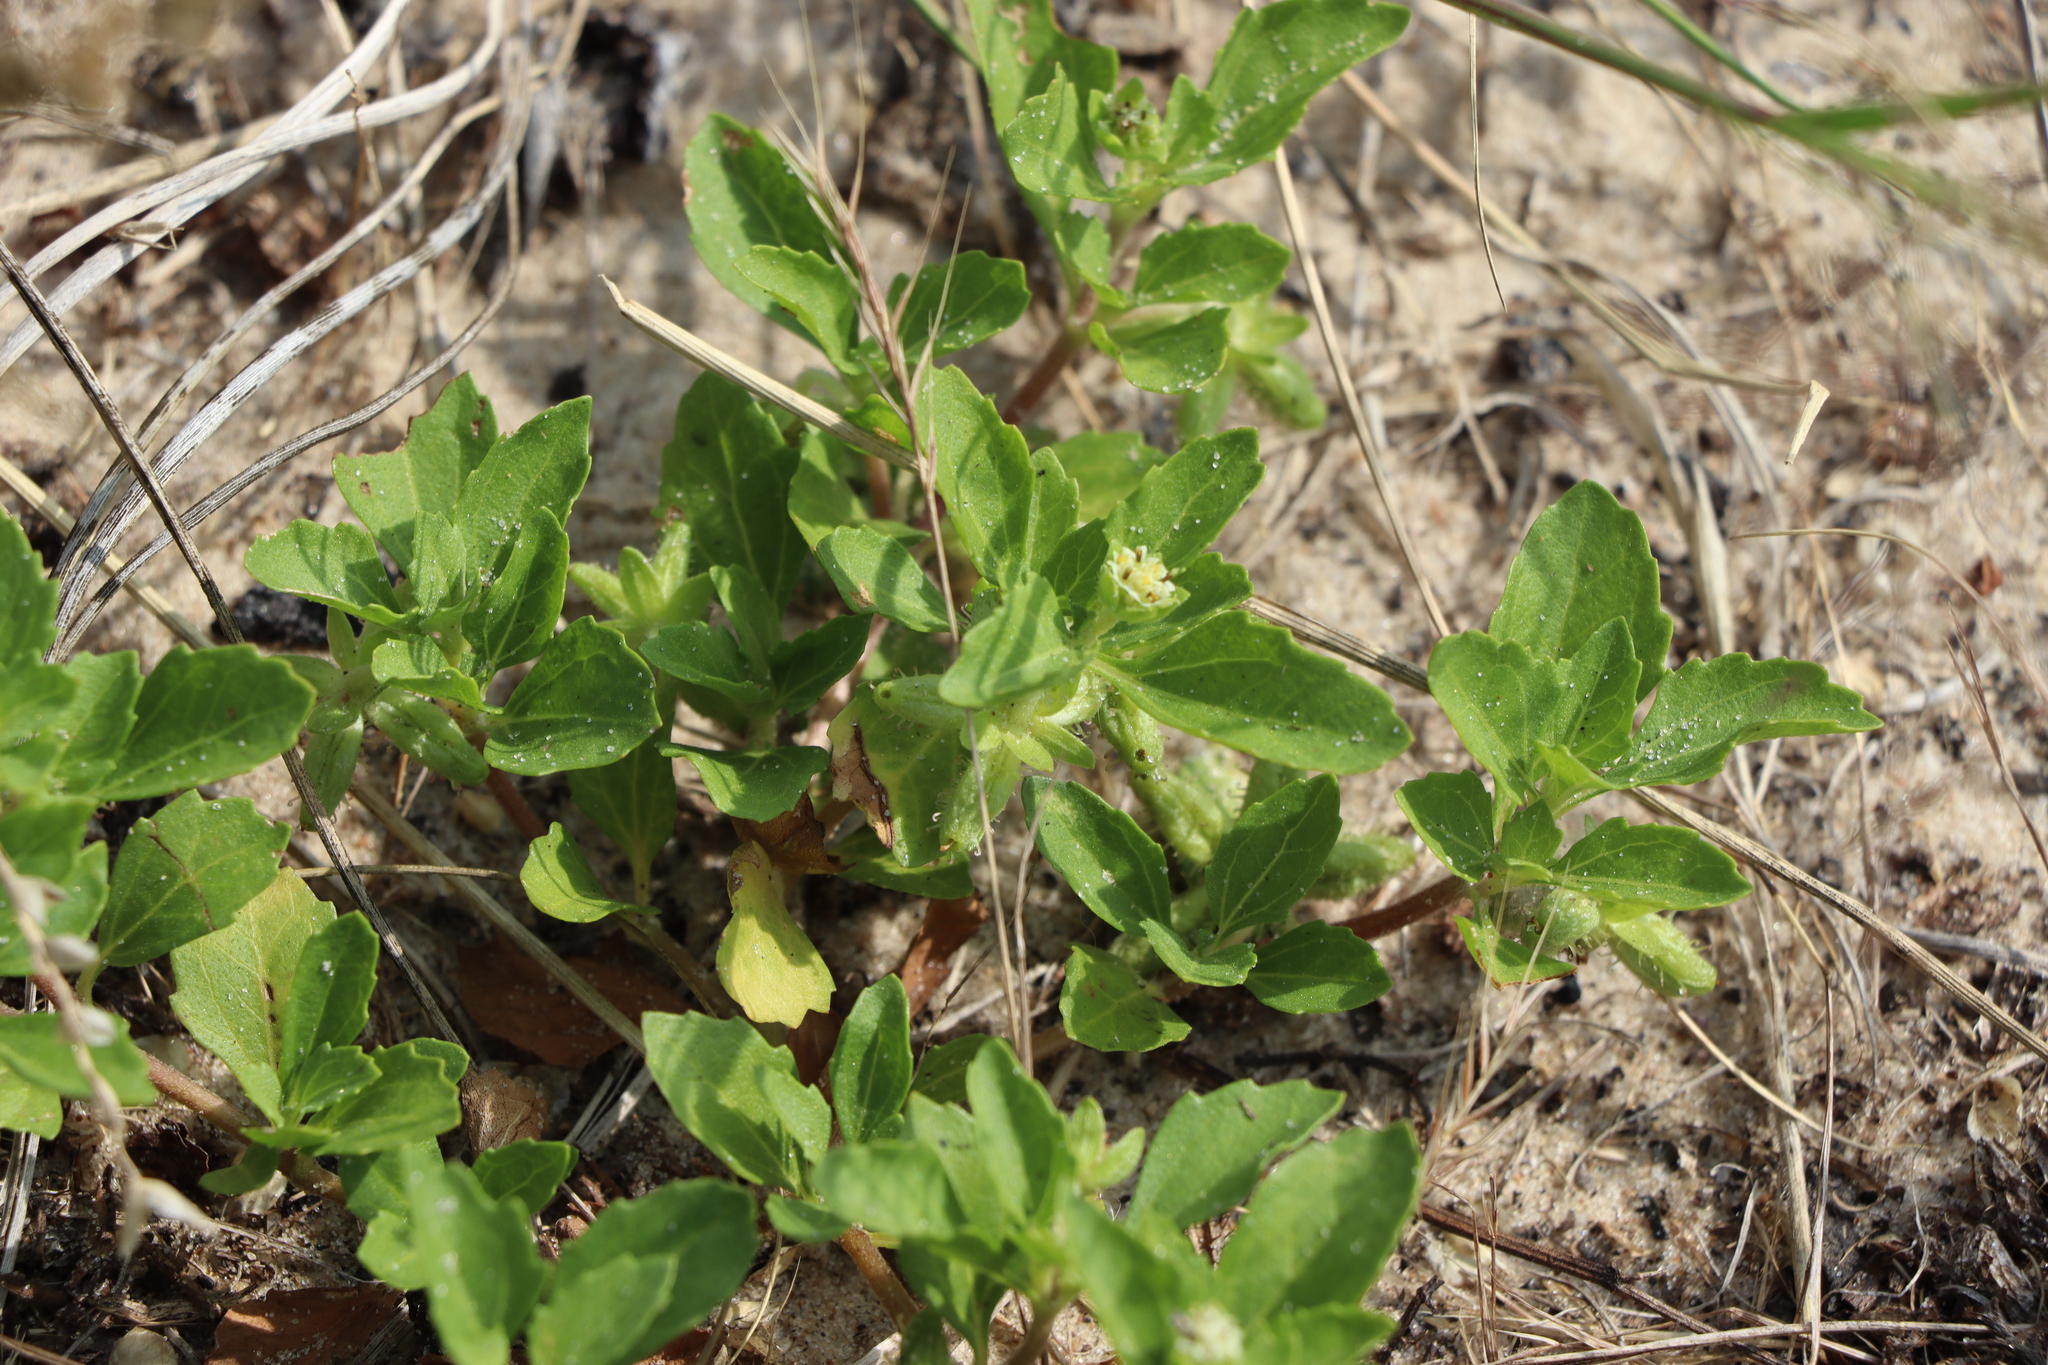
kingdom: Plantae
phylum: Tracheophyta
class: Magnoliopsida
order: Asterales
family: Asteraceae
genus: Acanthospermum
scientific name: Acanthospermum australe
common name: Paraguayan starbur
